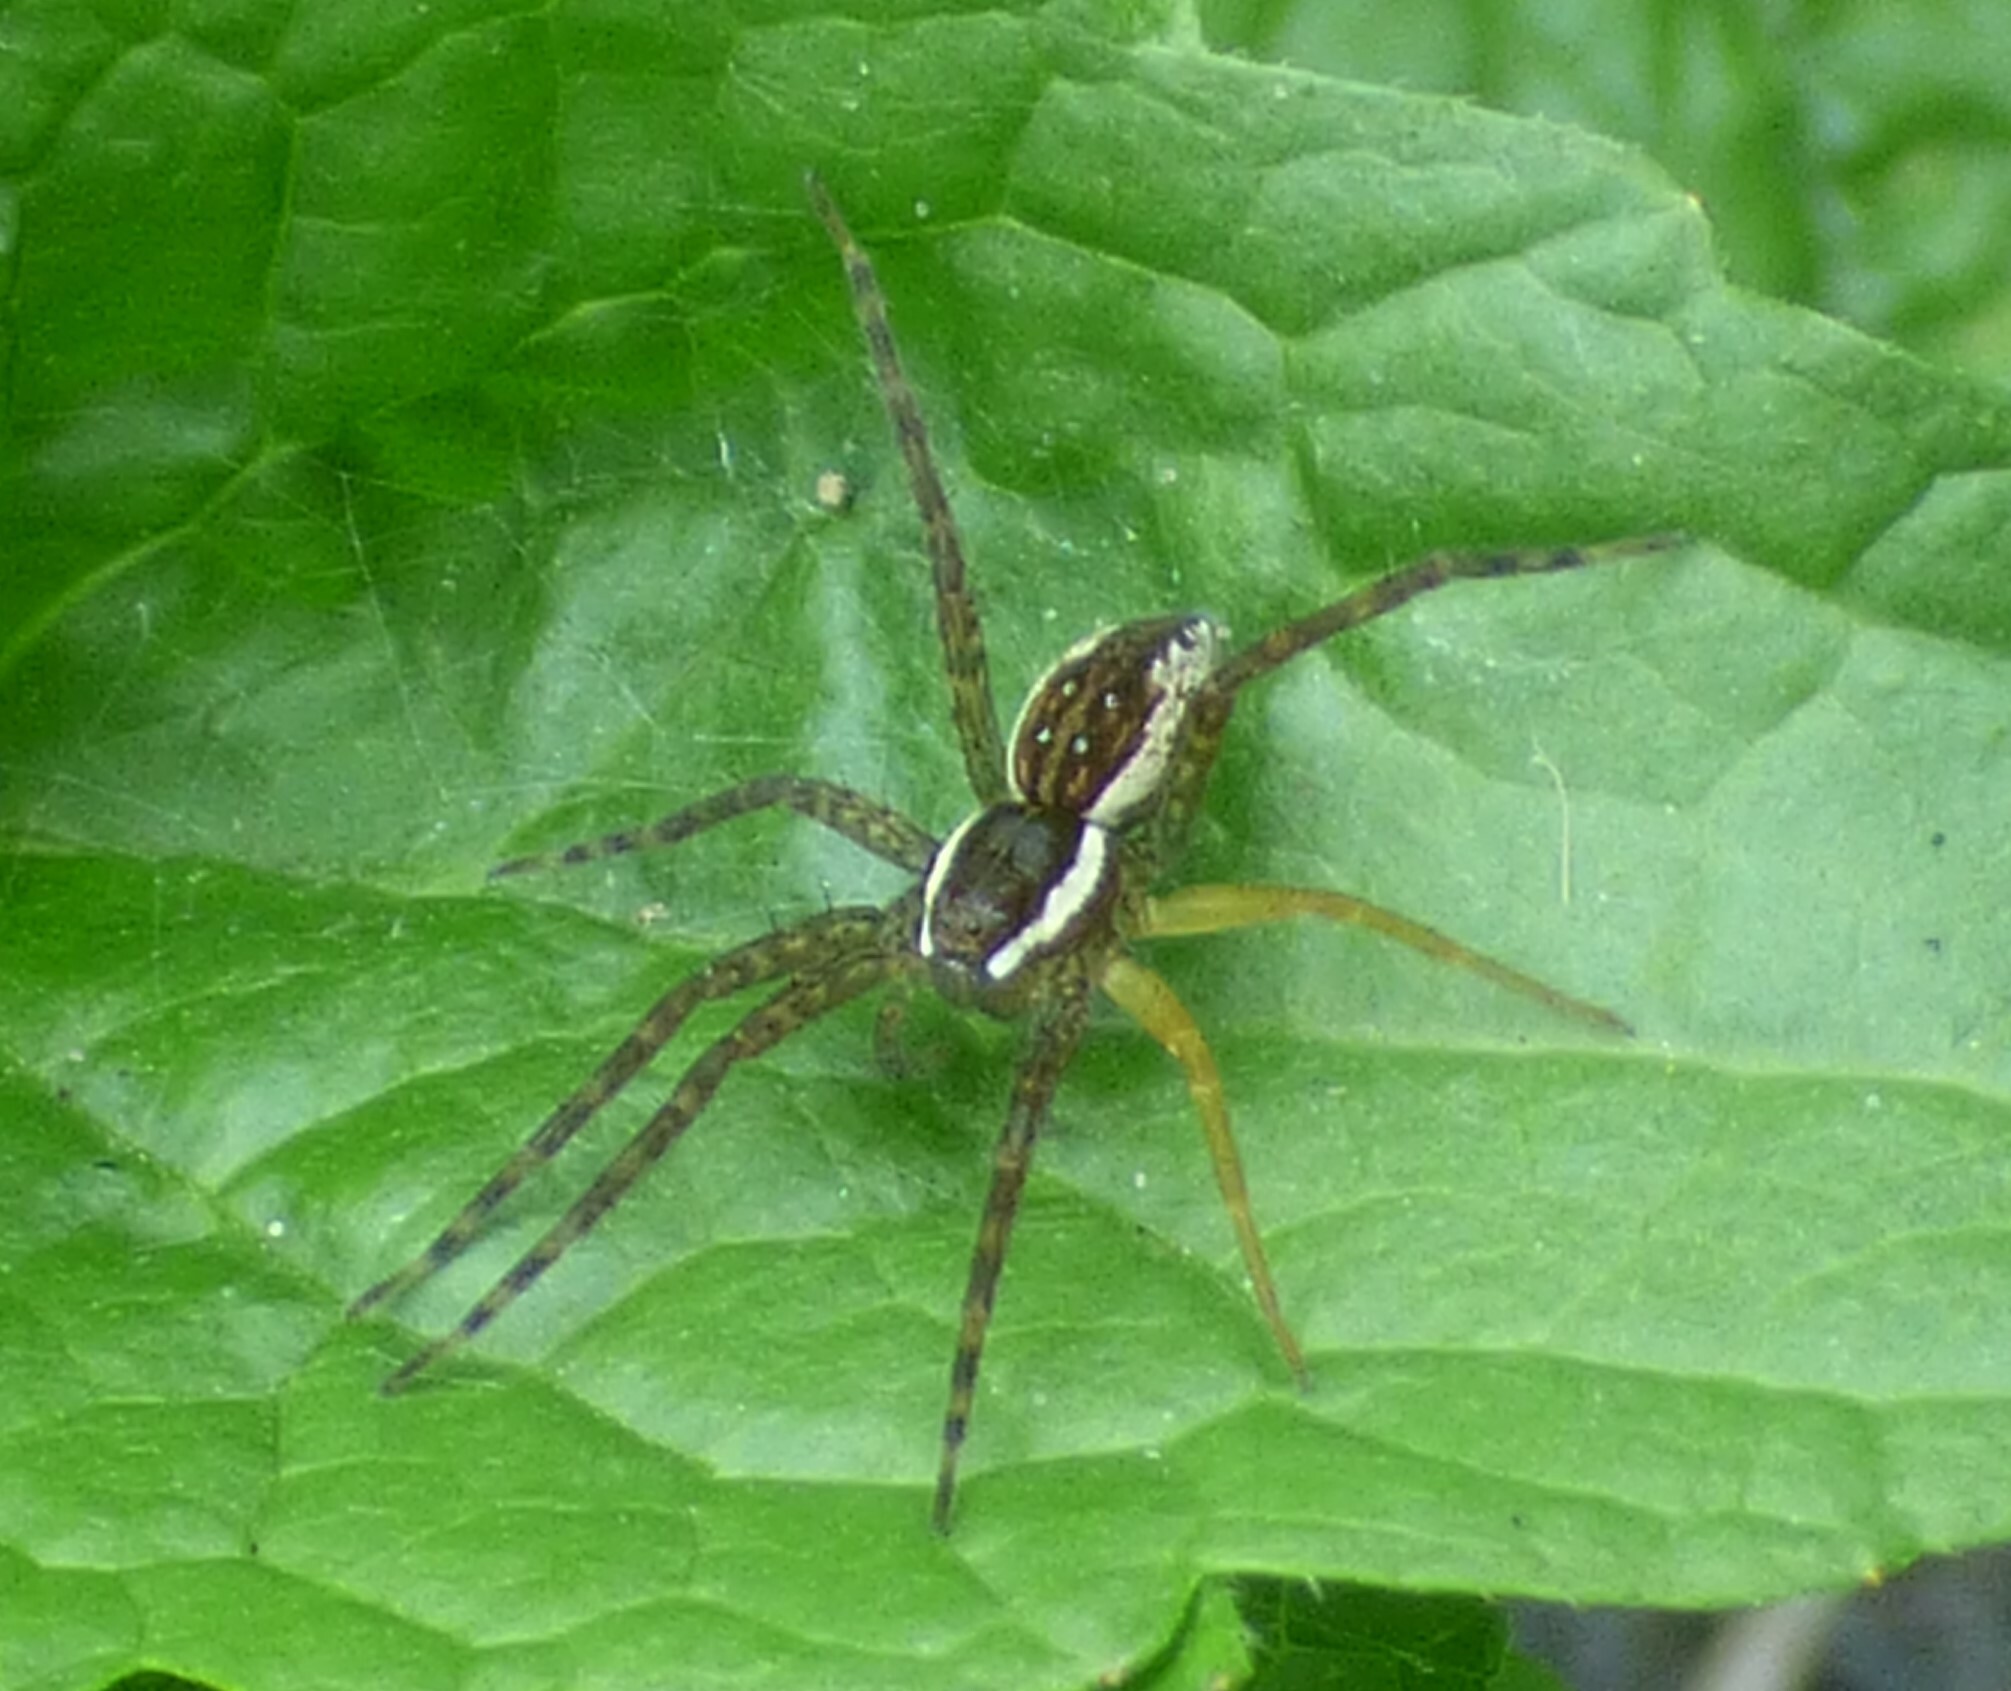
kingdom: Animalia
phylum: Arthropoda
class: Arachnida
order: Araneae
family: Pisauridae
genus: Dolomedes
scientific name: Dolomedes triton
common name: Six-spotted fishing spider
